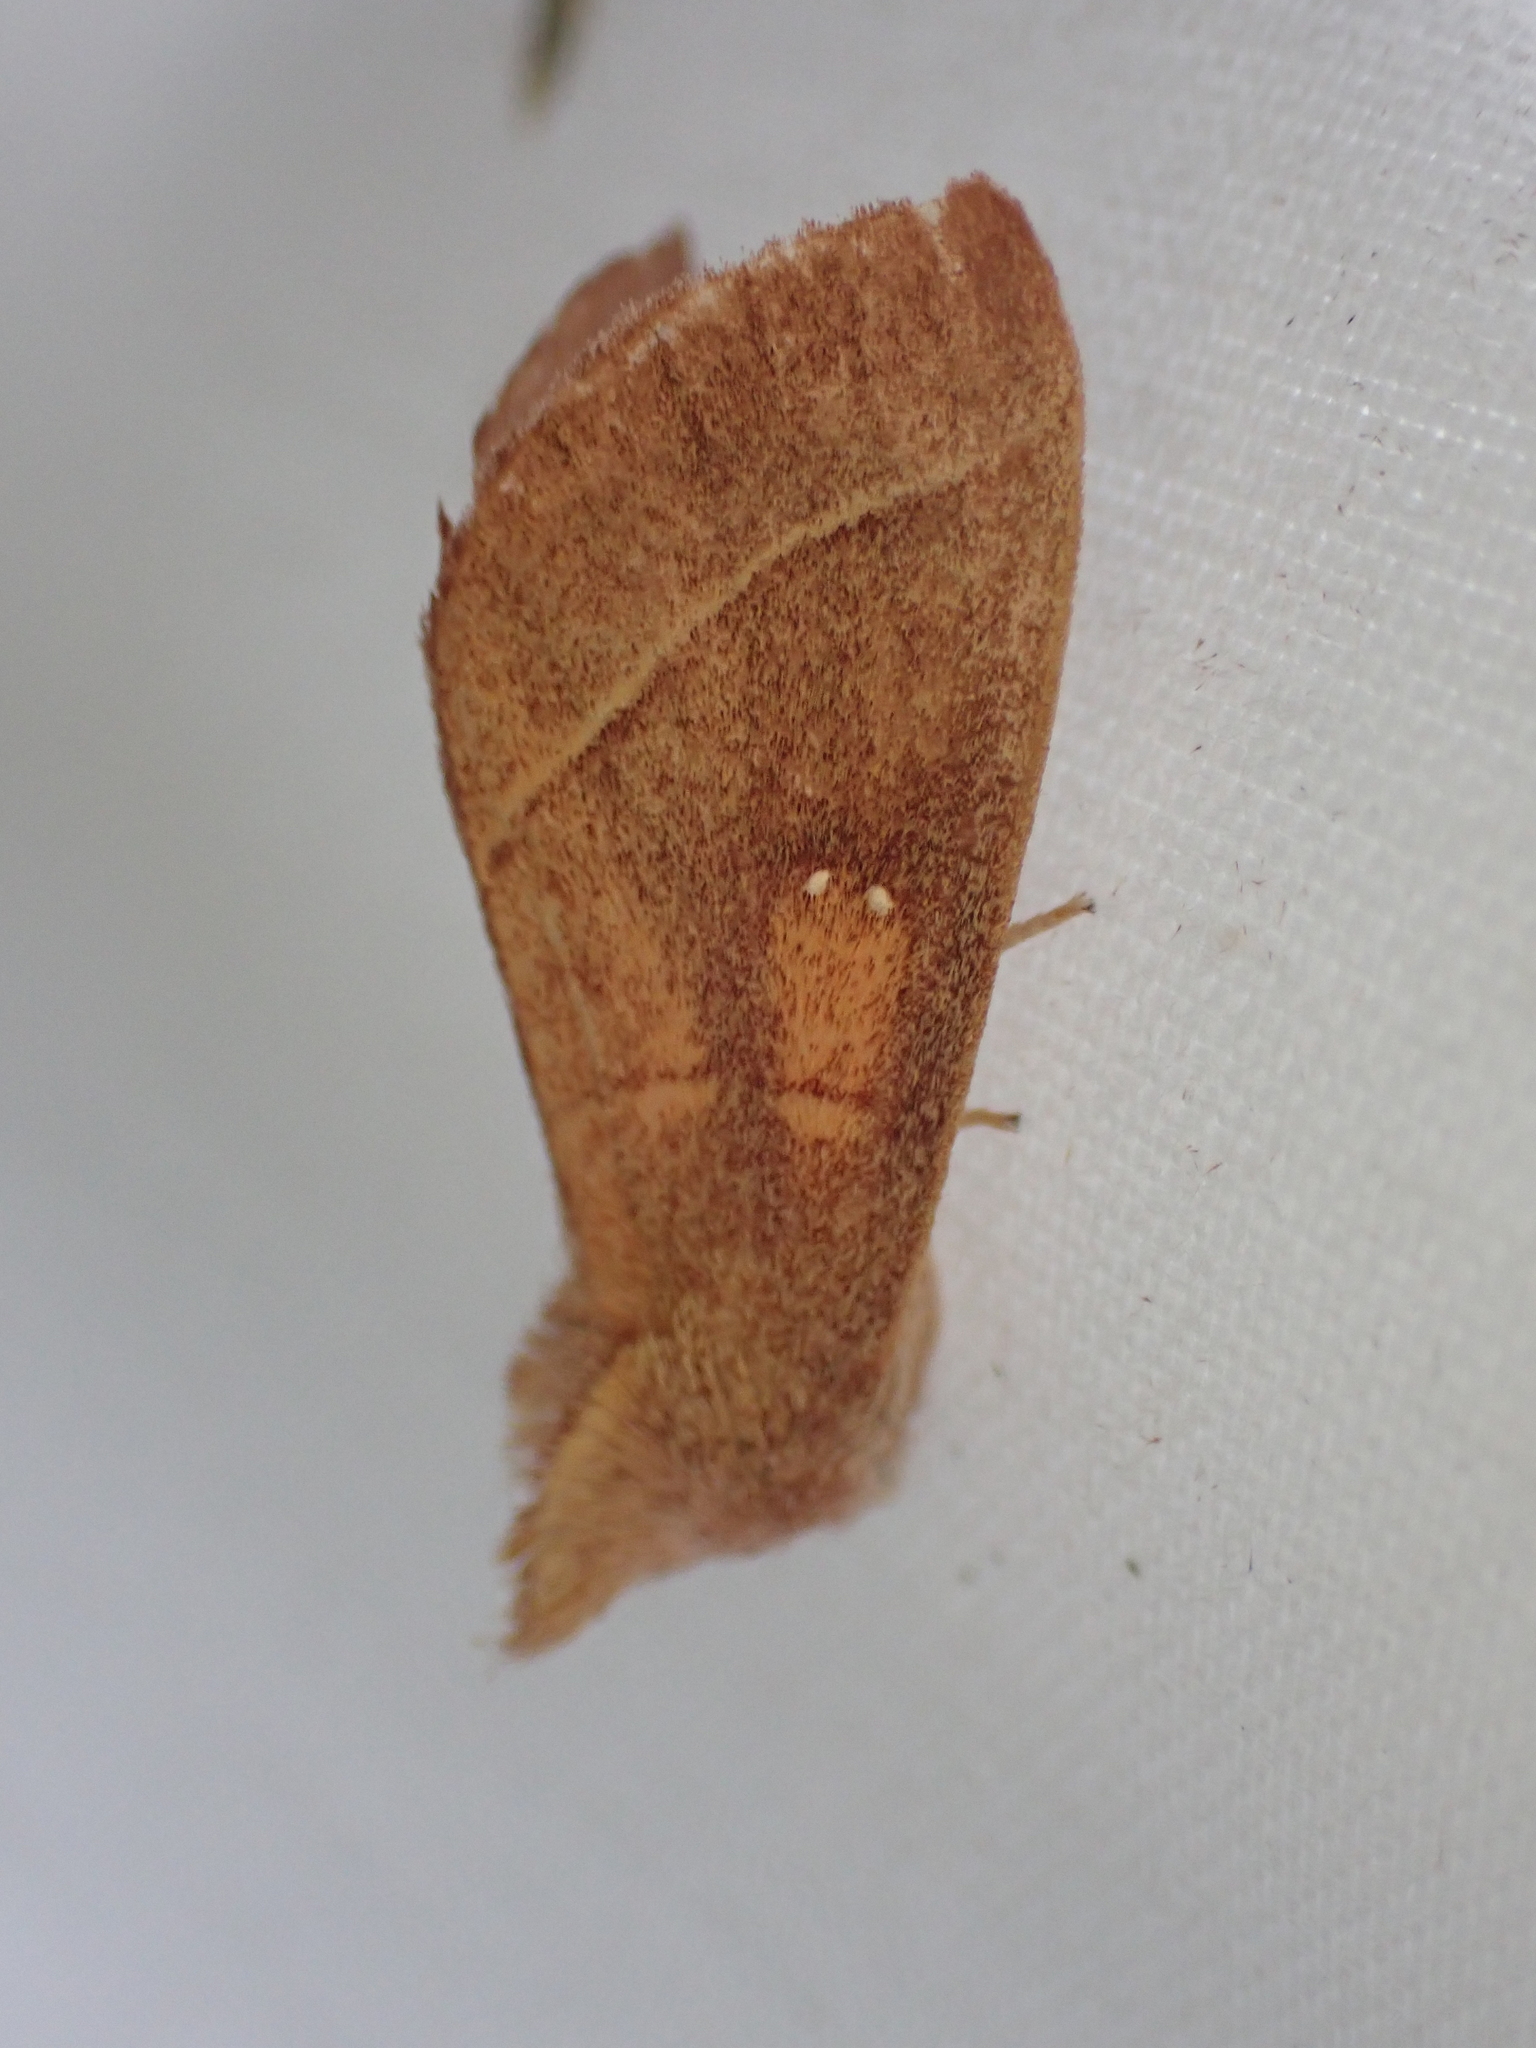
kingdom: Animalia
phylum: Arthropoda
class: Insecta
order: Lepidoptera
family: Notodontidae
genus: Nadata
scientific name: Nadata gibbosa
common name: White-dotted prominent
